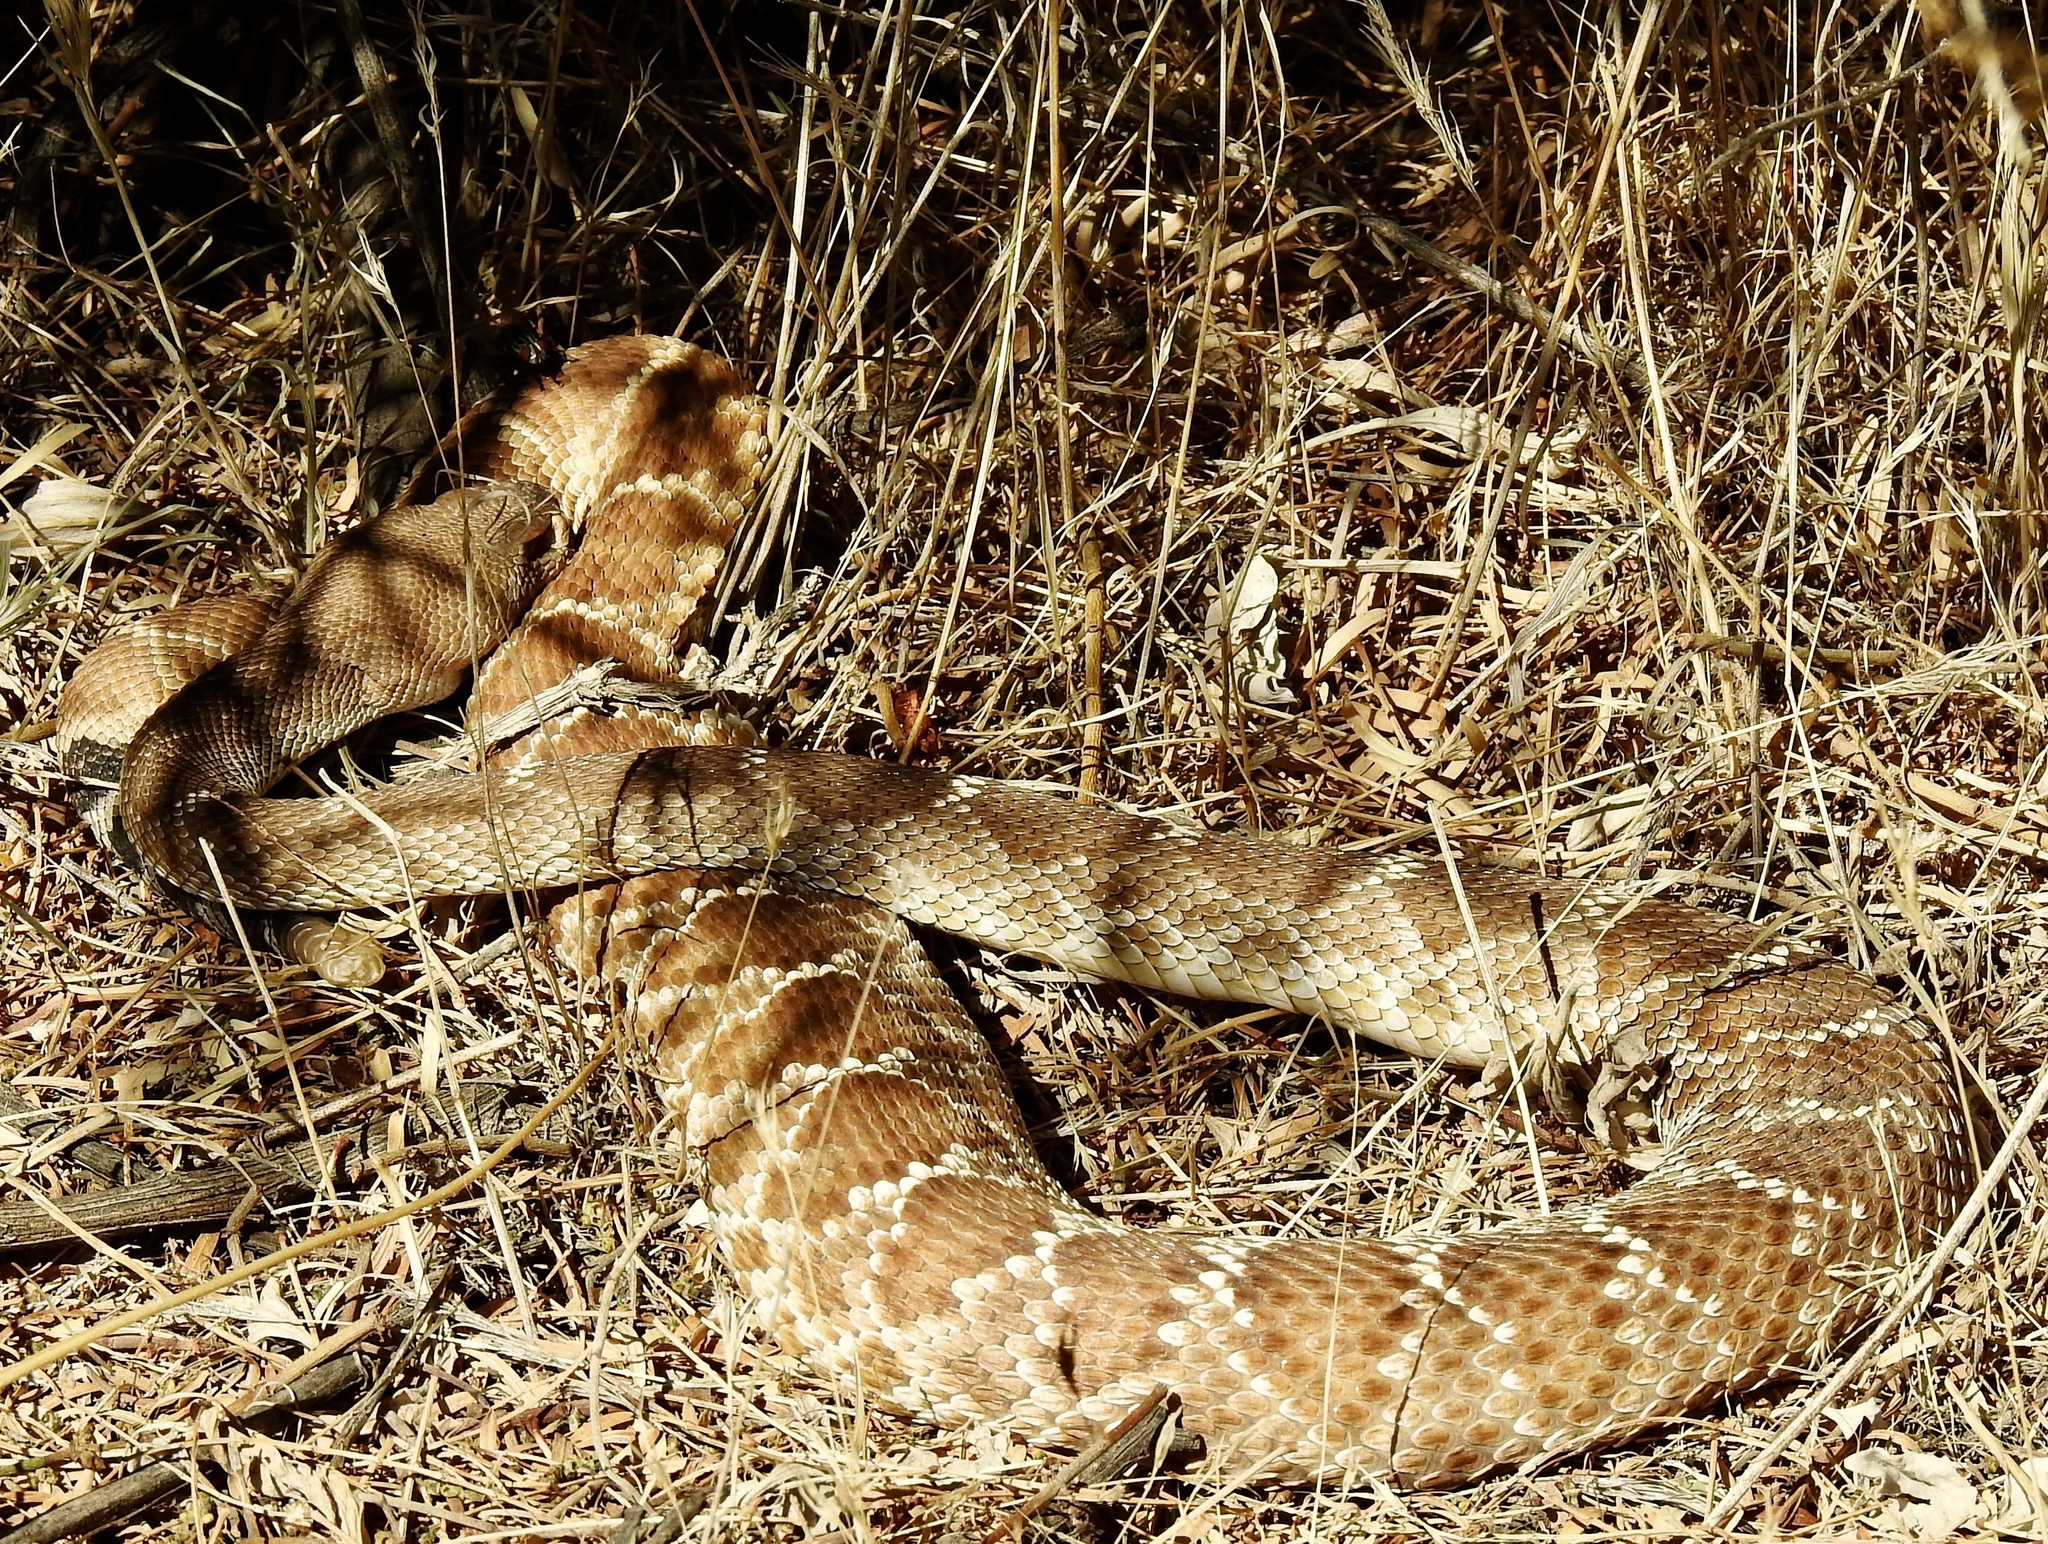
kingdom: Animalia
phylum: Chordata
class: Squamata
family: Viperidae
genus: Crotalus
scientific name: Crotalus ruber
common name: Red diamond rattlesnake
